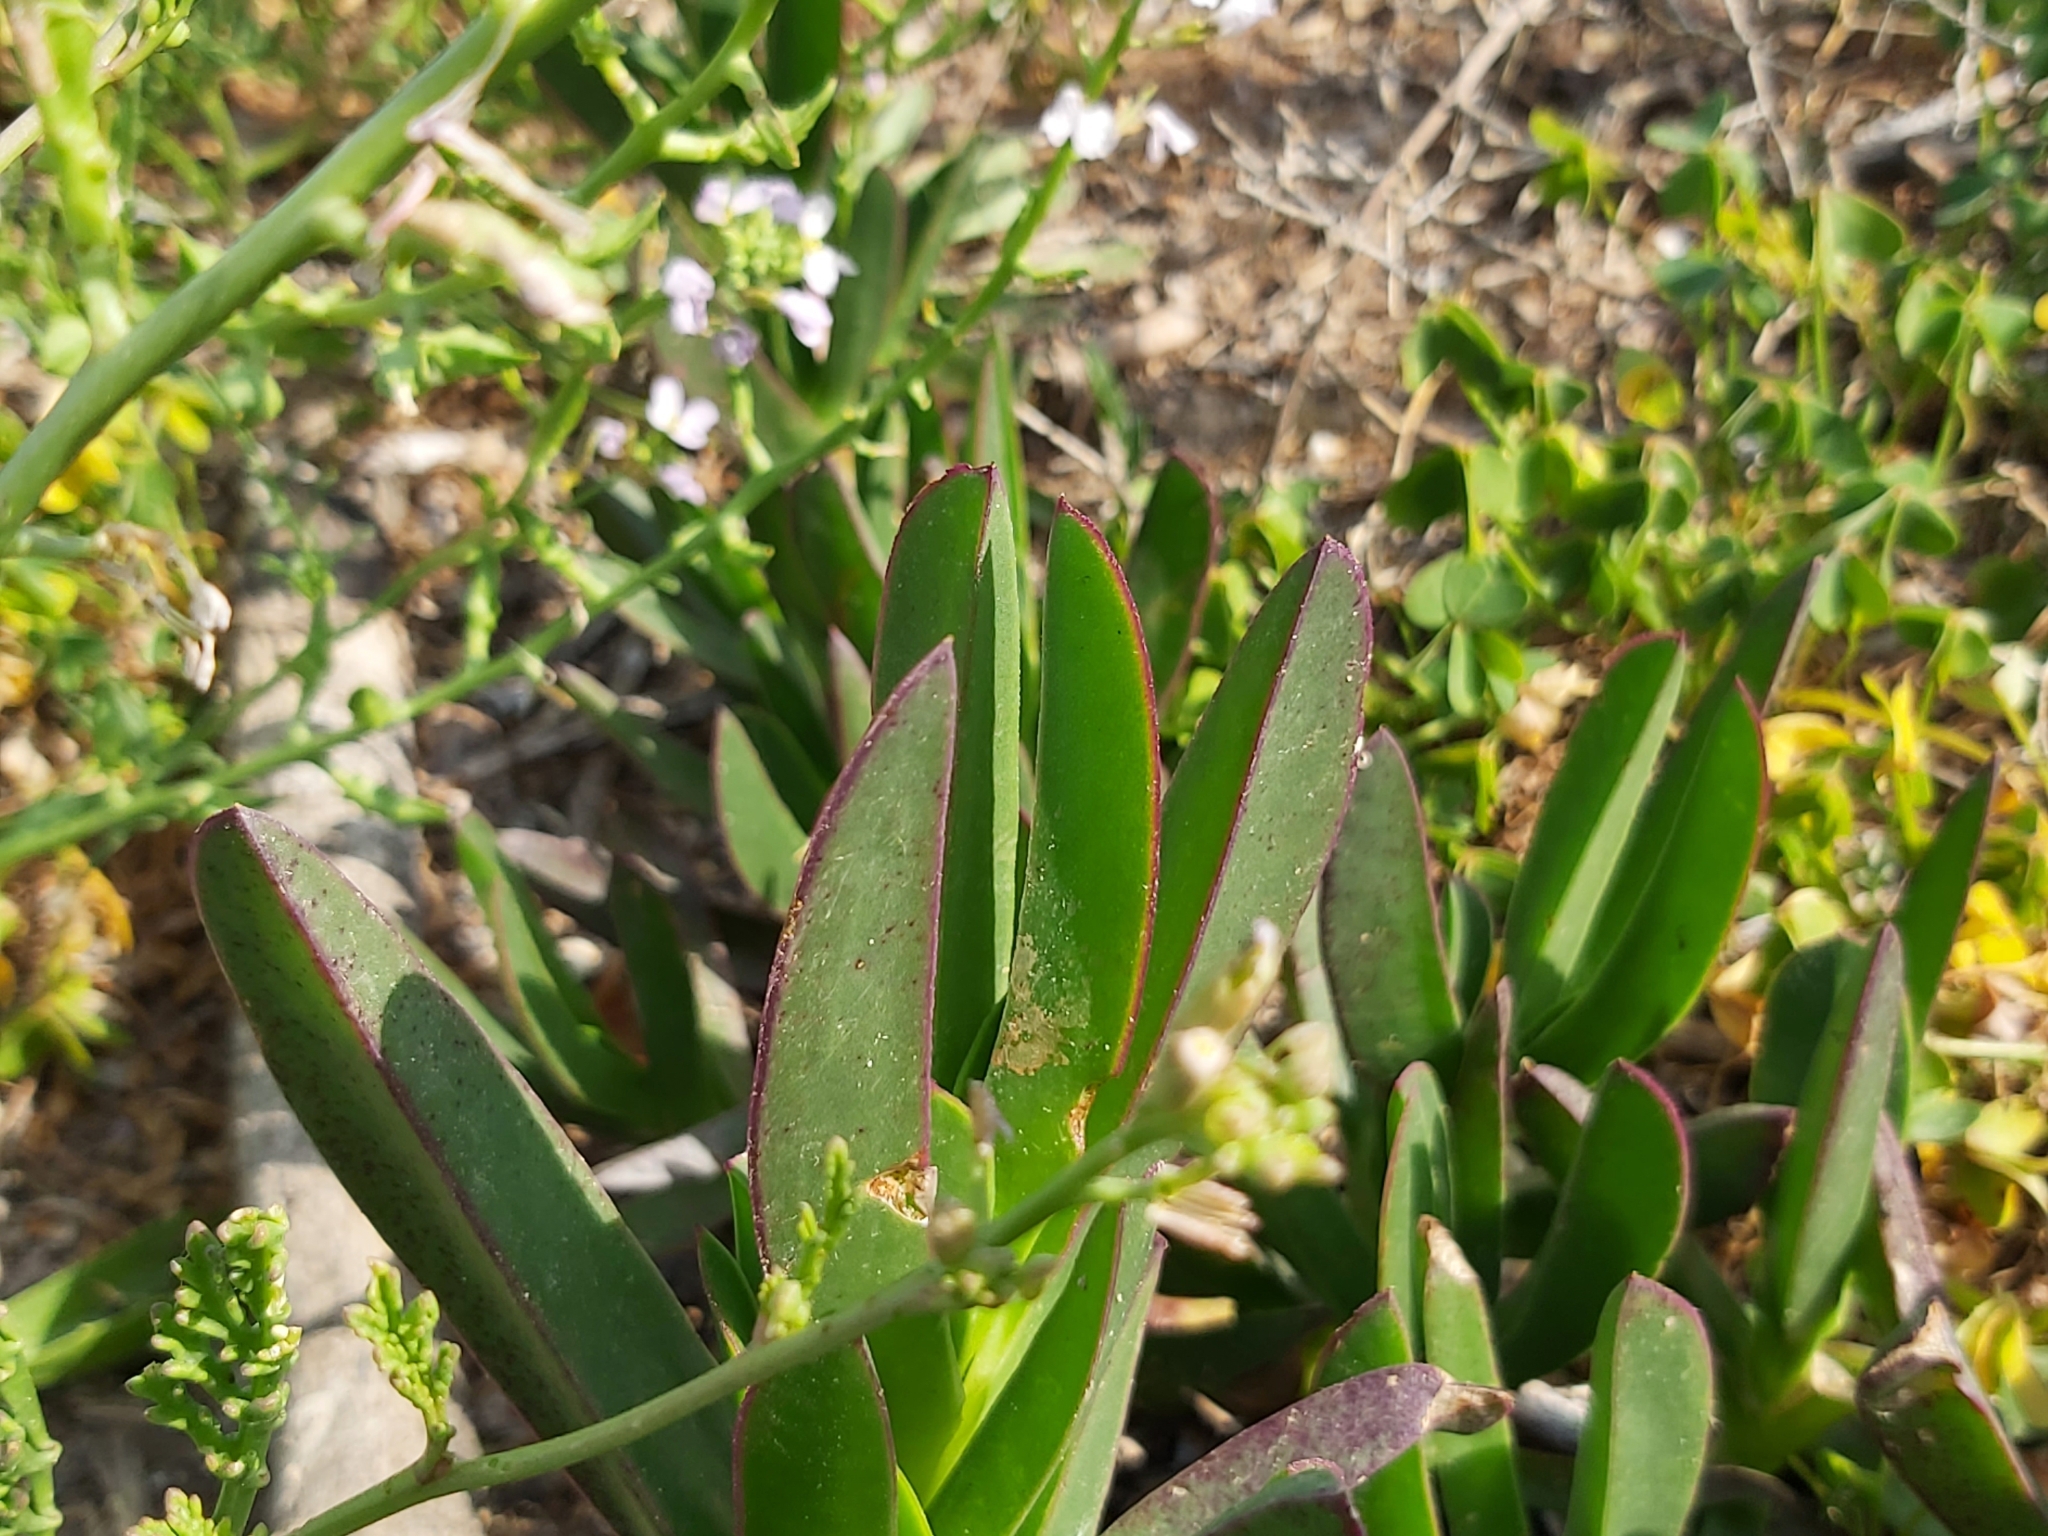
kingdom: Plantae
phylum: Tracheophyta
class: Magnoliopsida
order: Caryophyllales
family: Aizoaceae
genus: Carpobrotus
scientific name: Carpobrotus acinaciformis
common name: Sally-my-handsome
